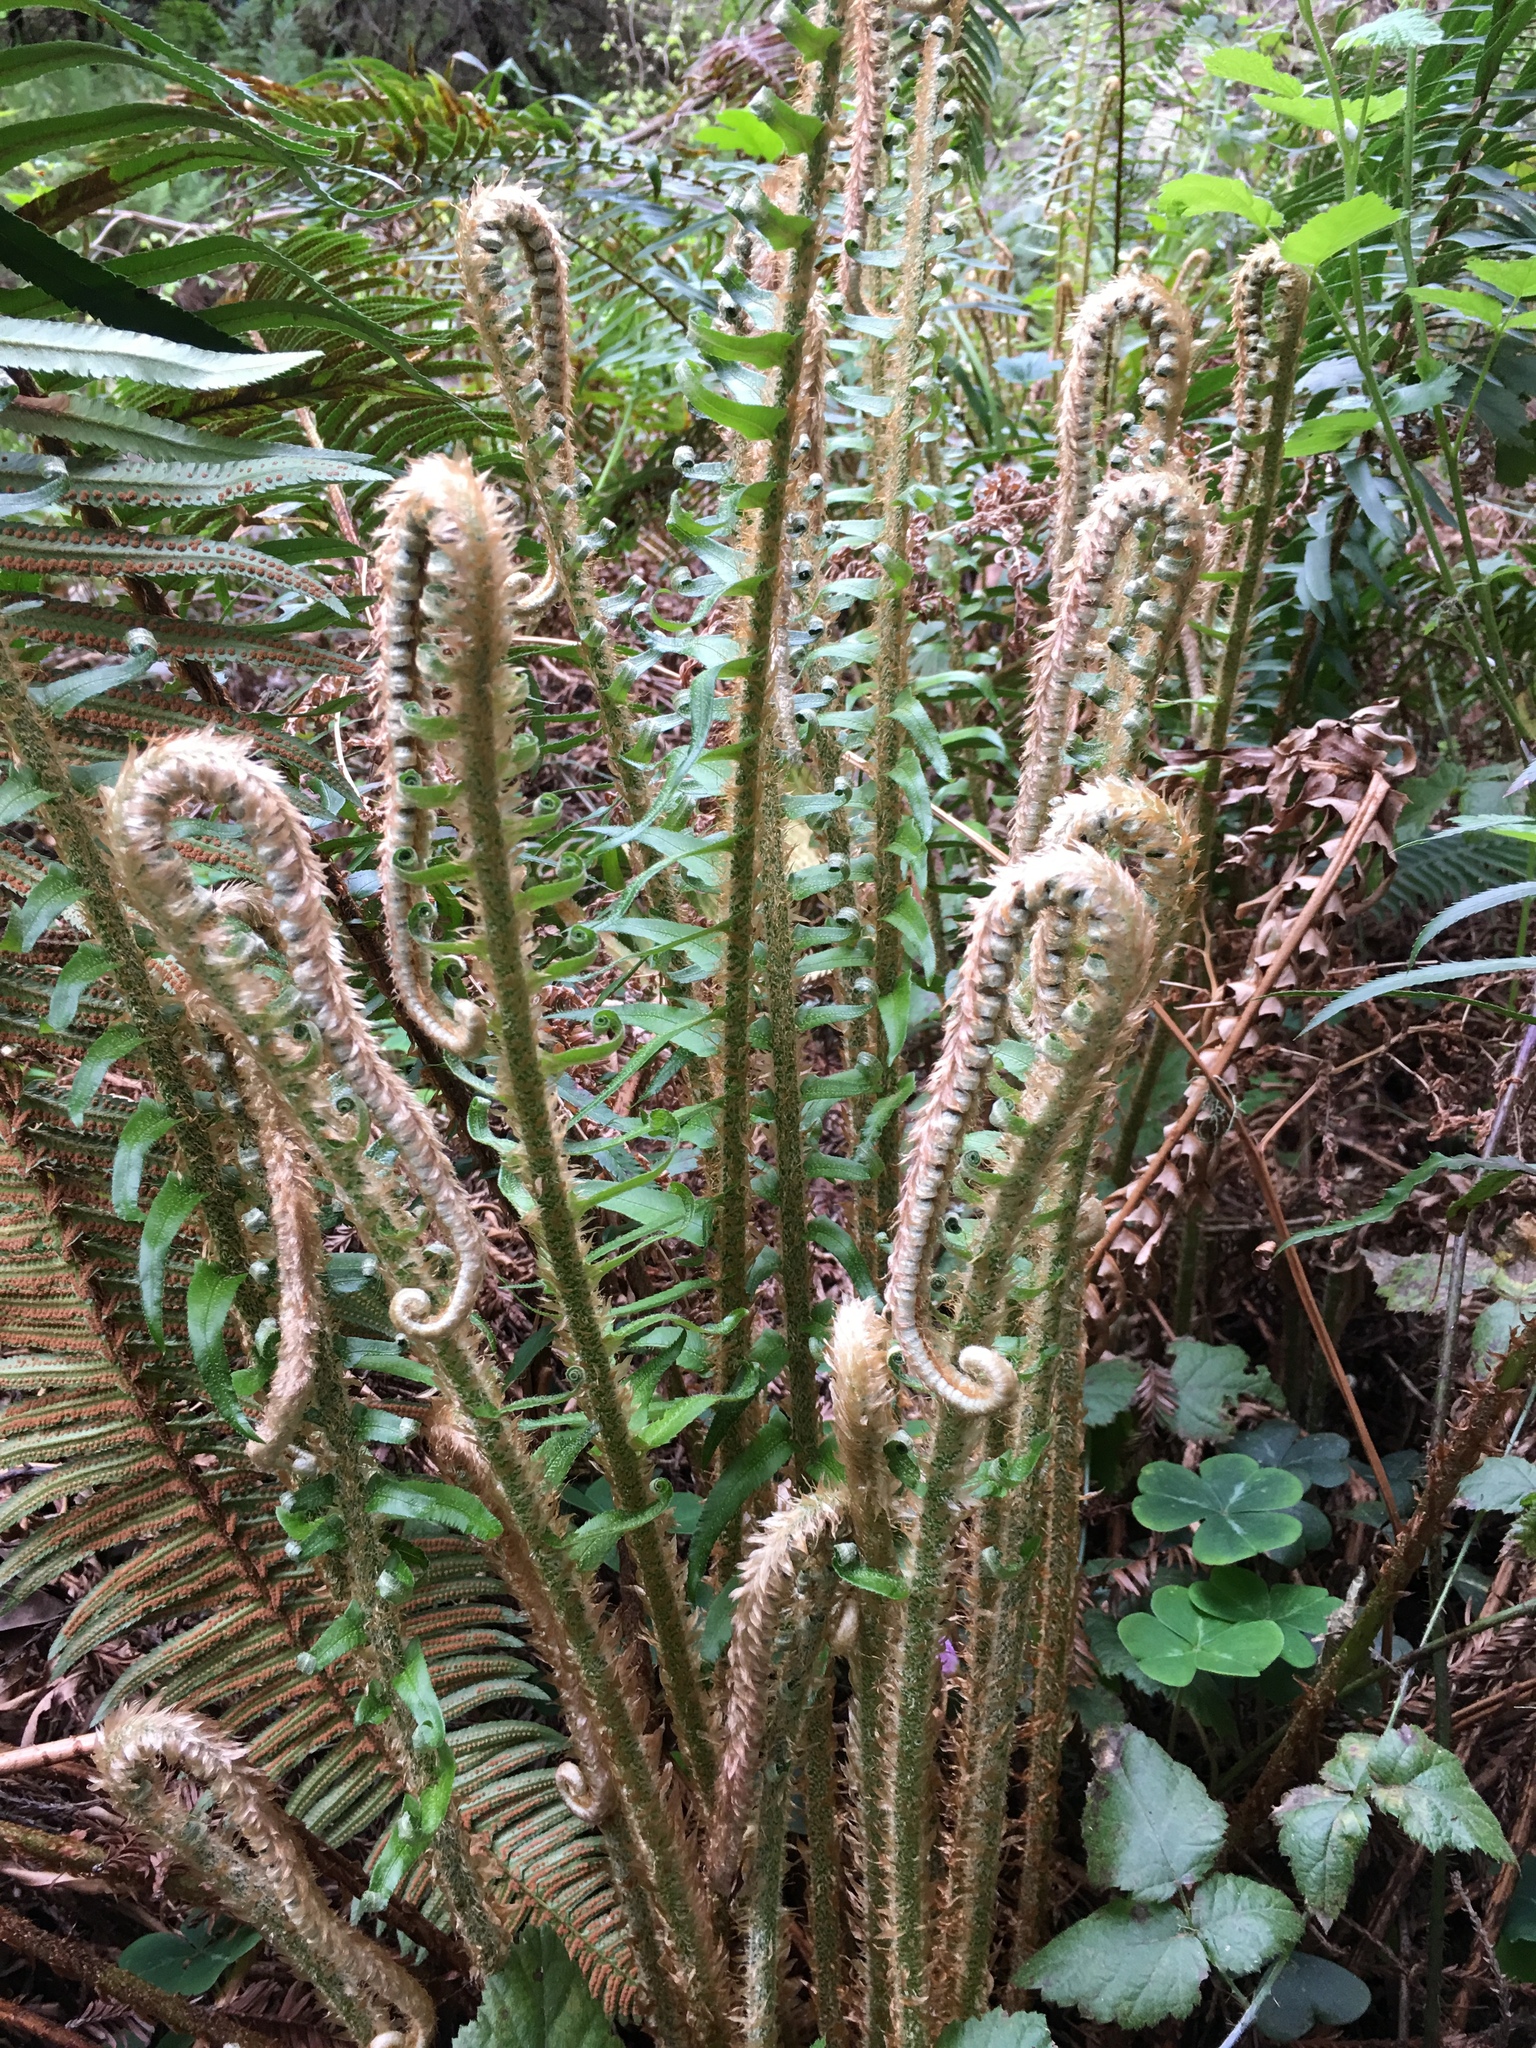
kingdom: Plantae
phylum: Tracheophyta
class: Polypodiopsida
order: Polypodiales
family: Dryopteridaceae
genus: Polystichum
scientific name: Polystichum munitum
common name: Western sword-fern
